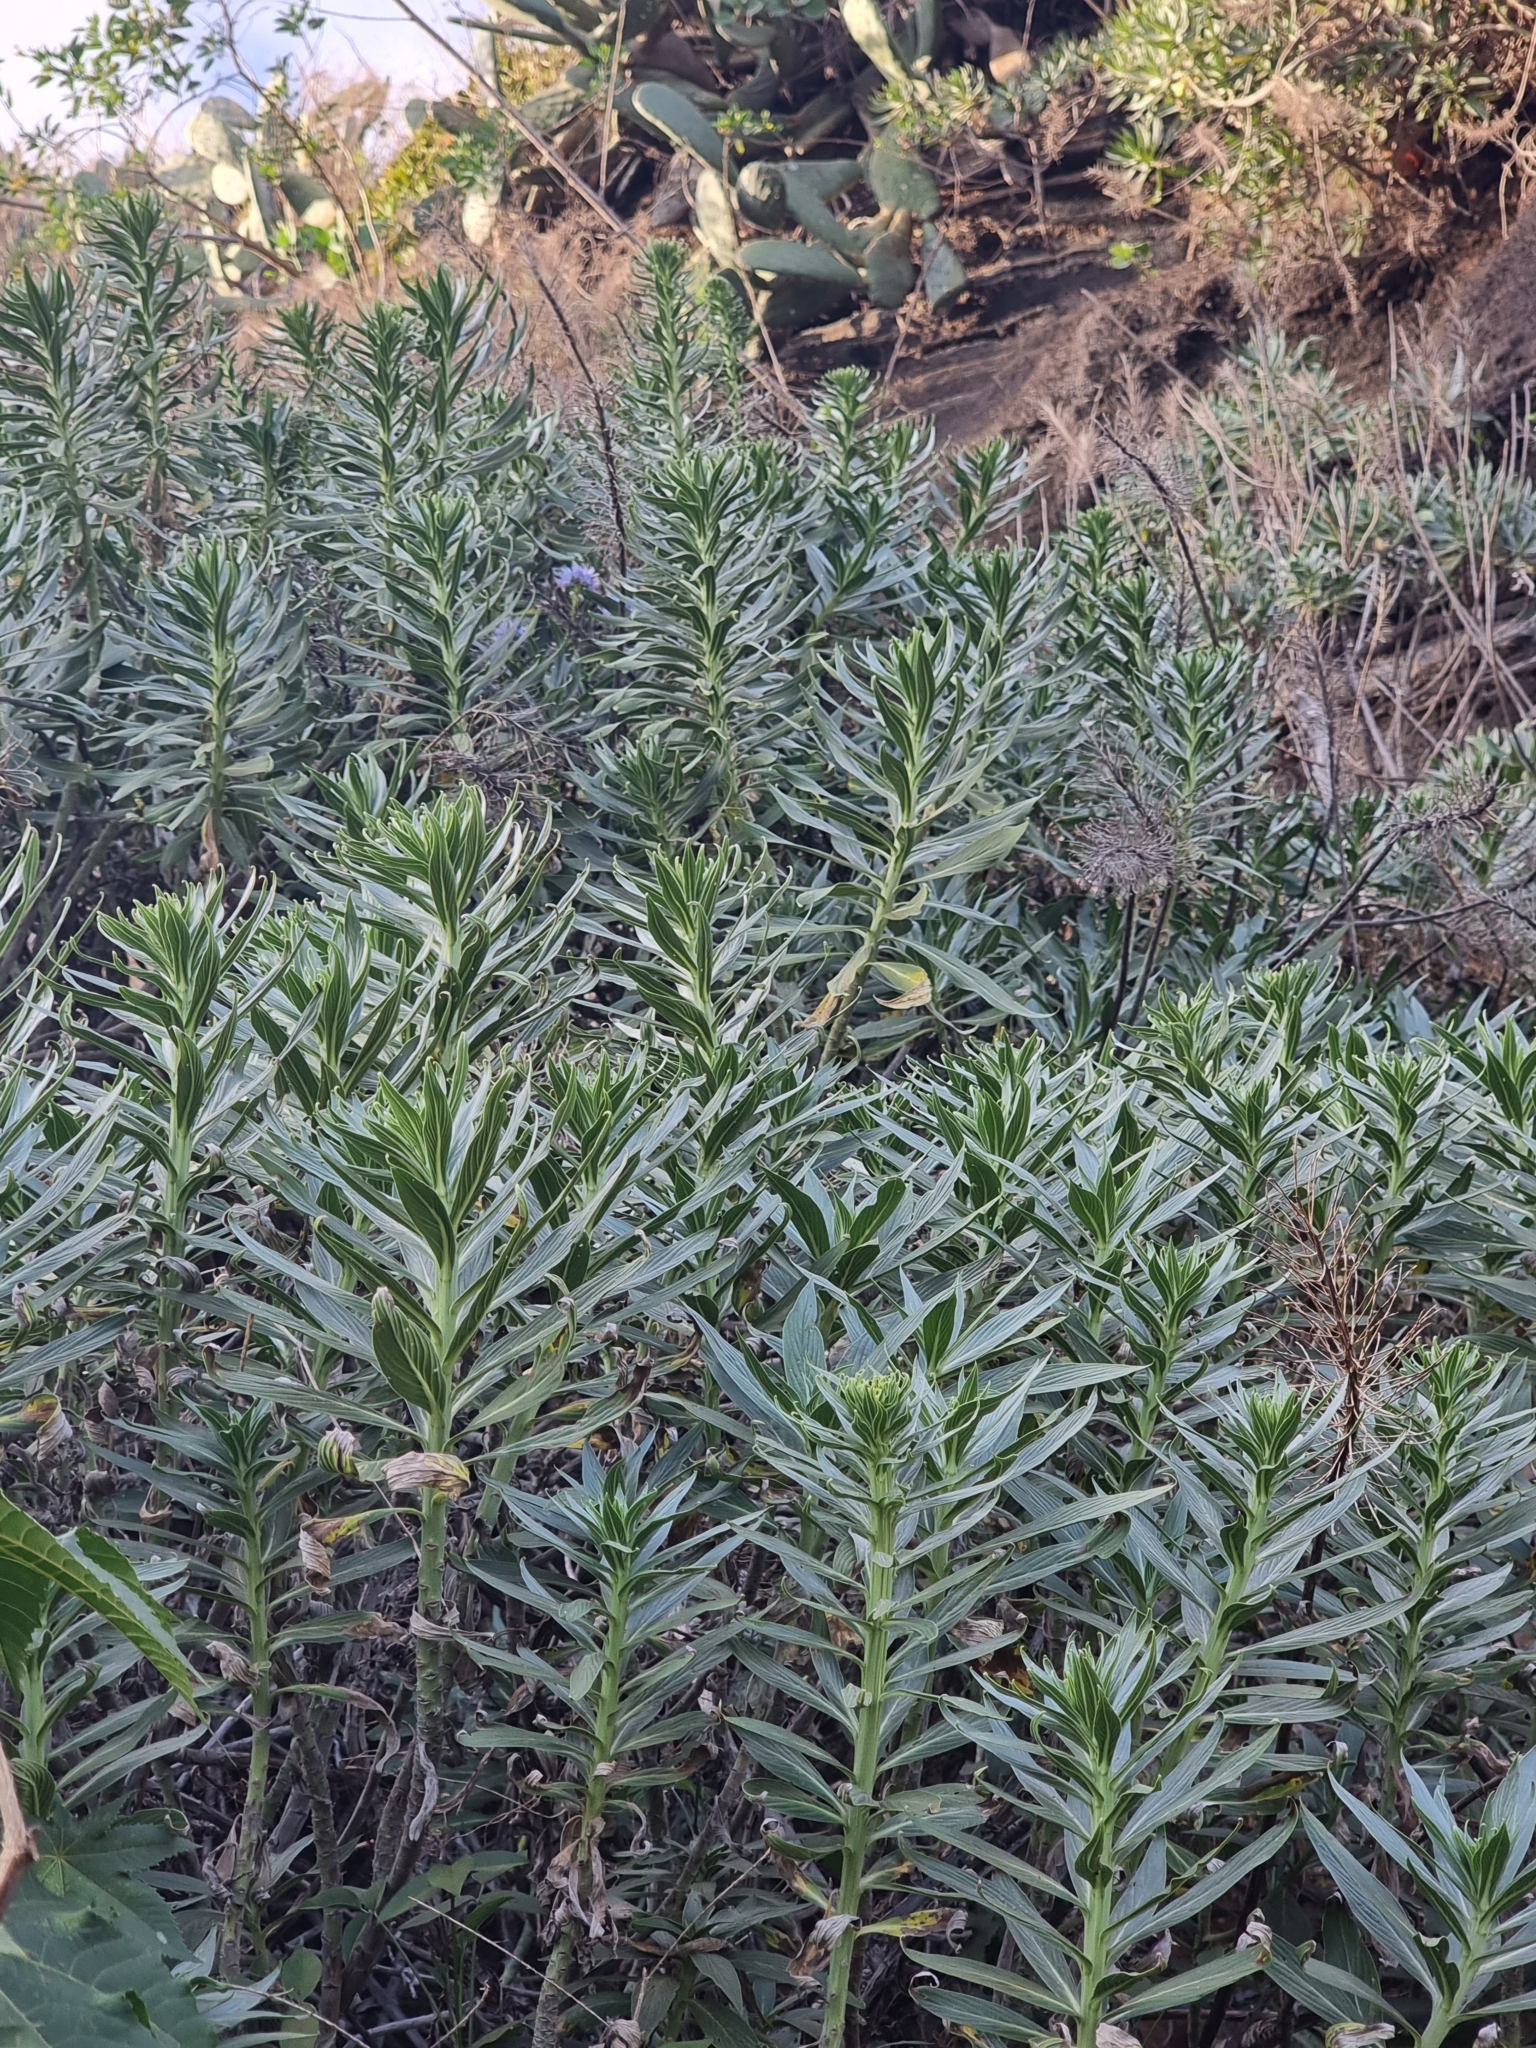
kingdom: Plantae
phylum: Tracheophyta
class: Magnoliopsida
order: Boraginales
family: Boraginaceae
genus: Echium
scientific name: Echium nervosum
